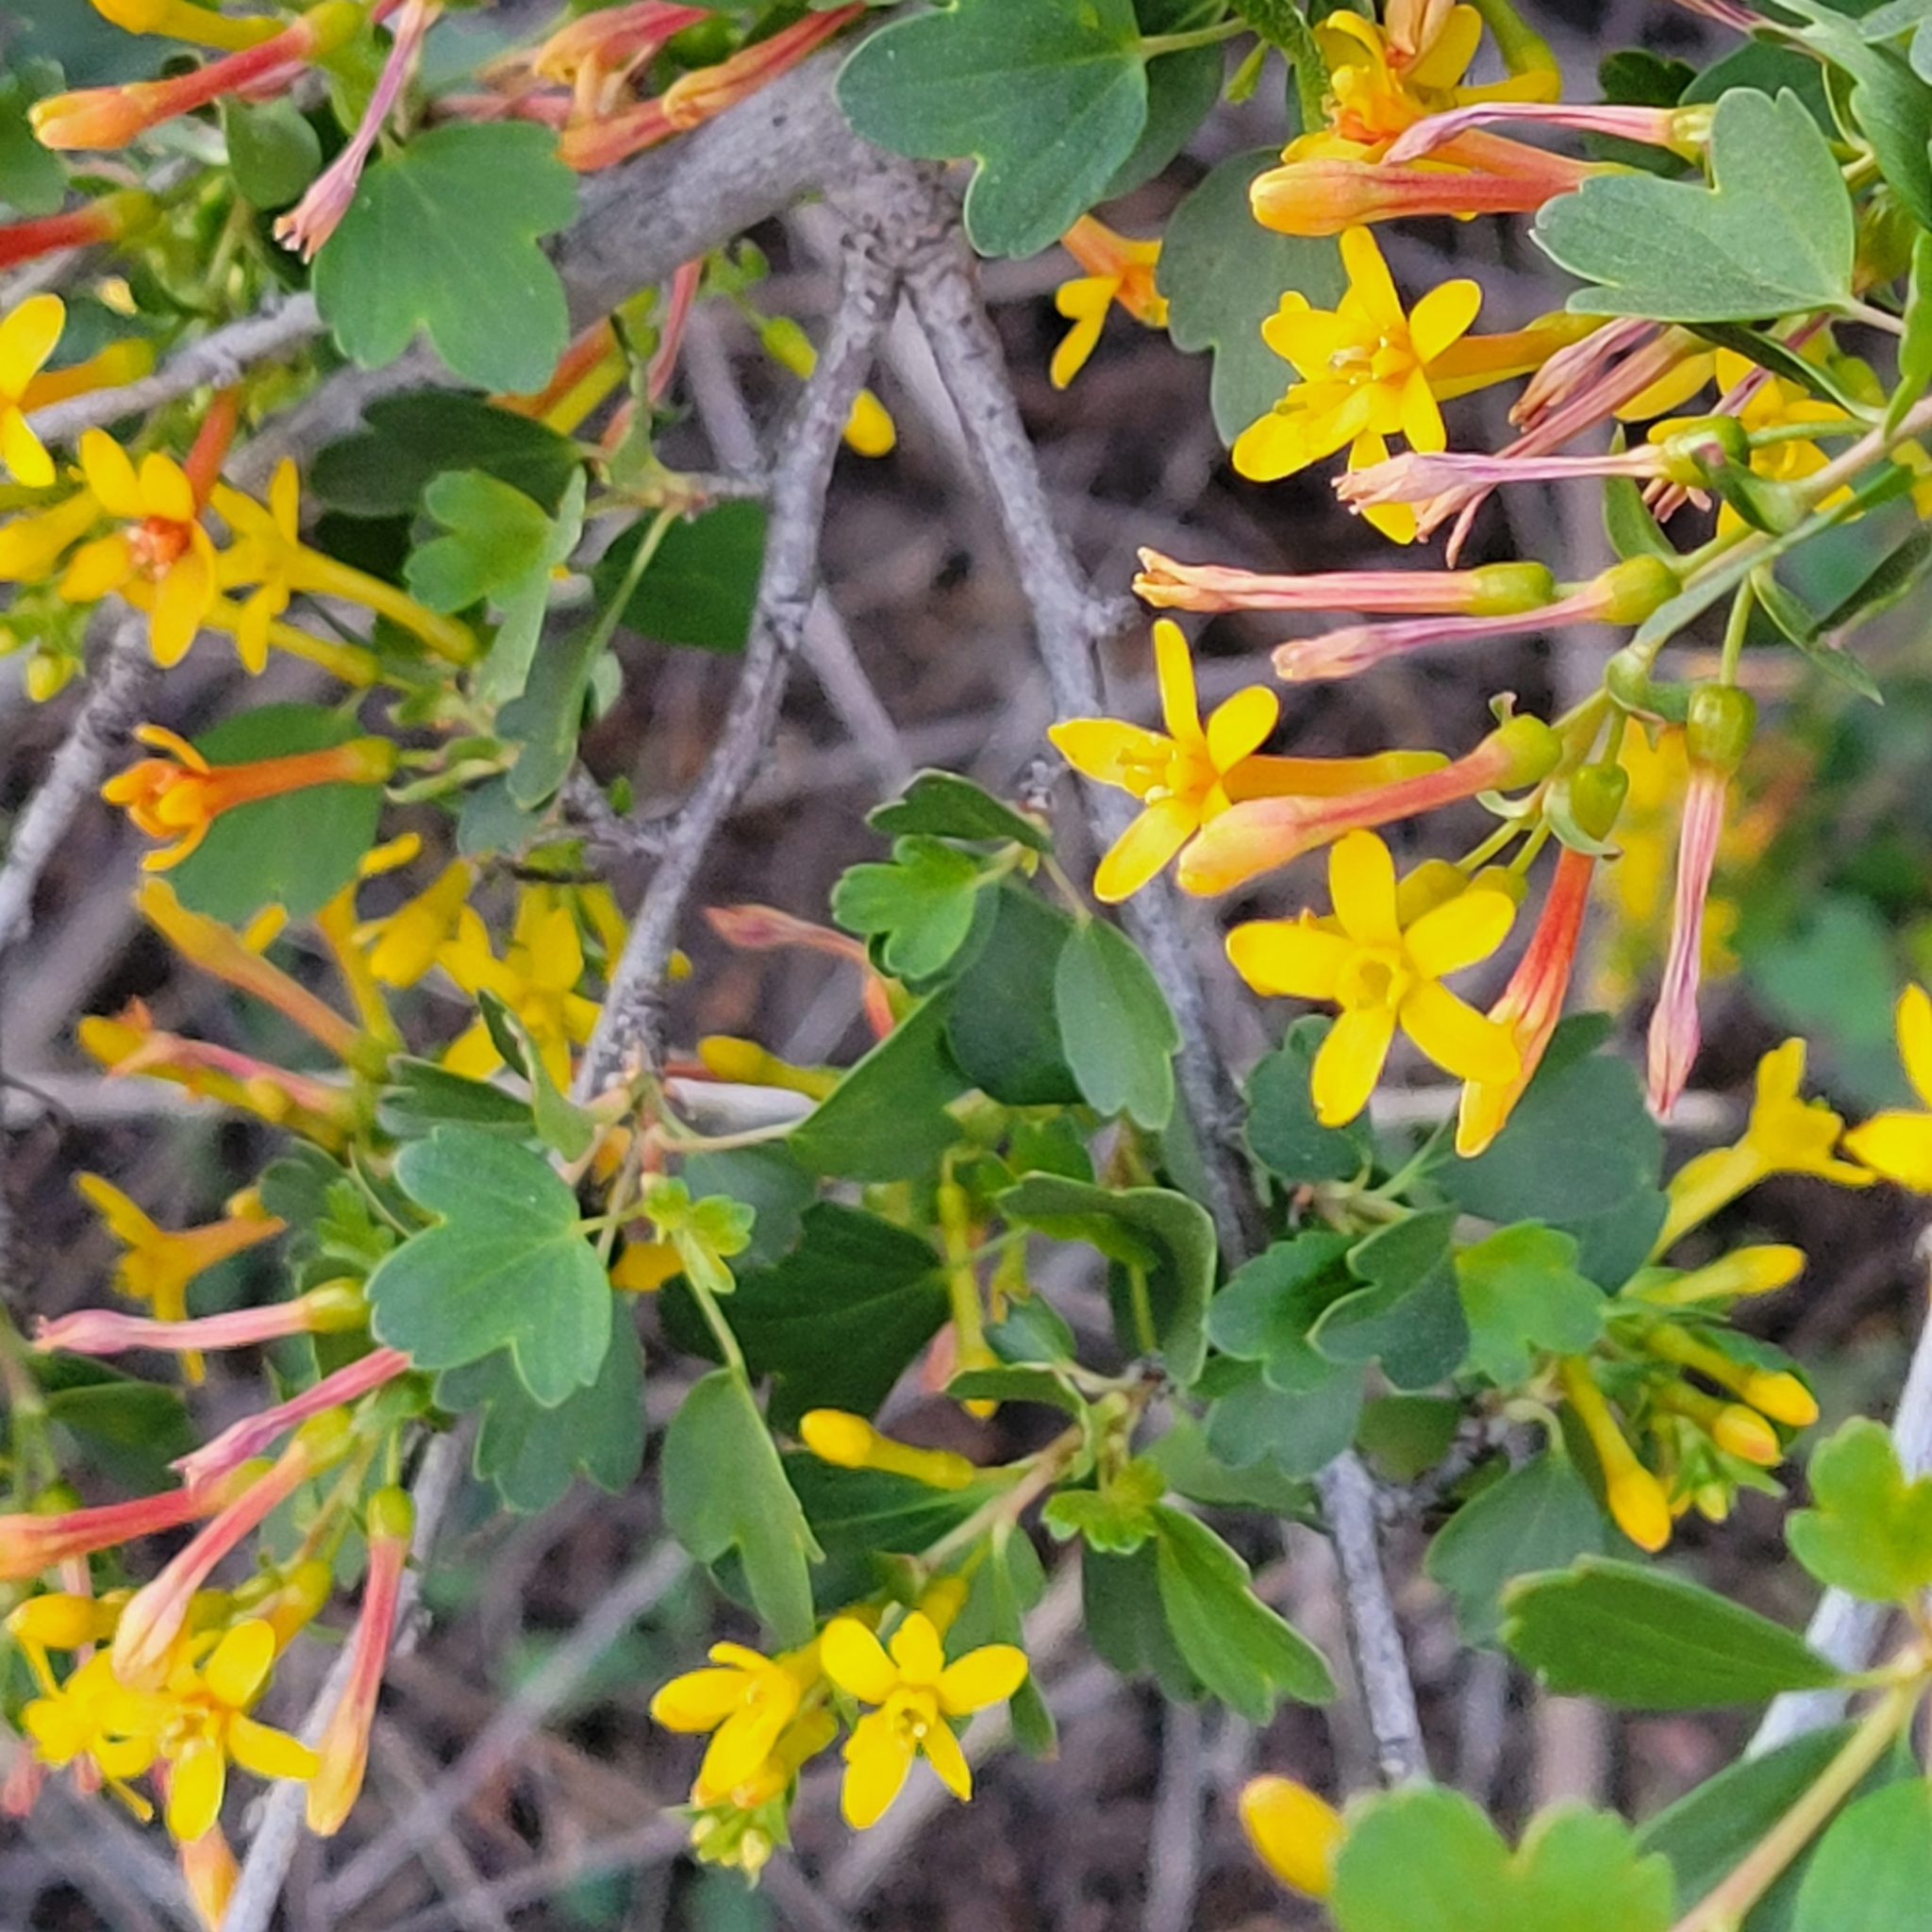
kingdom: Plantae
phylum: Tracheophyta
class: Magnoliopsida
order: Saxifragales
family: Grossulariaceae
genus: Ribes
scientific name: Ribes aureum
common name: Golden currant
